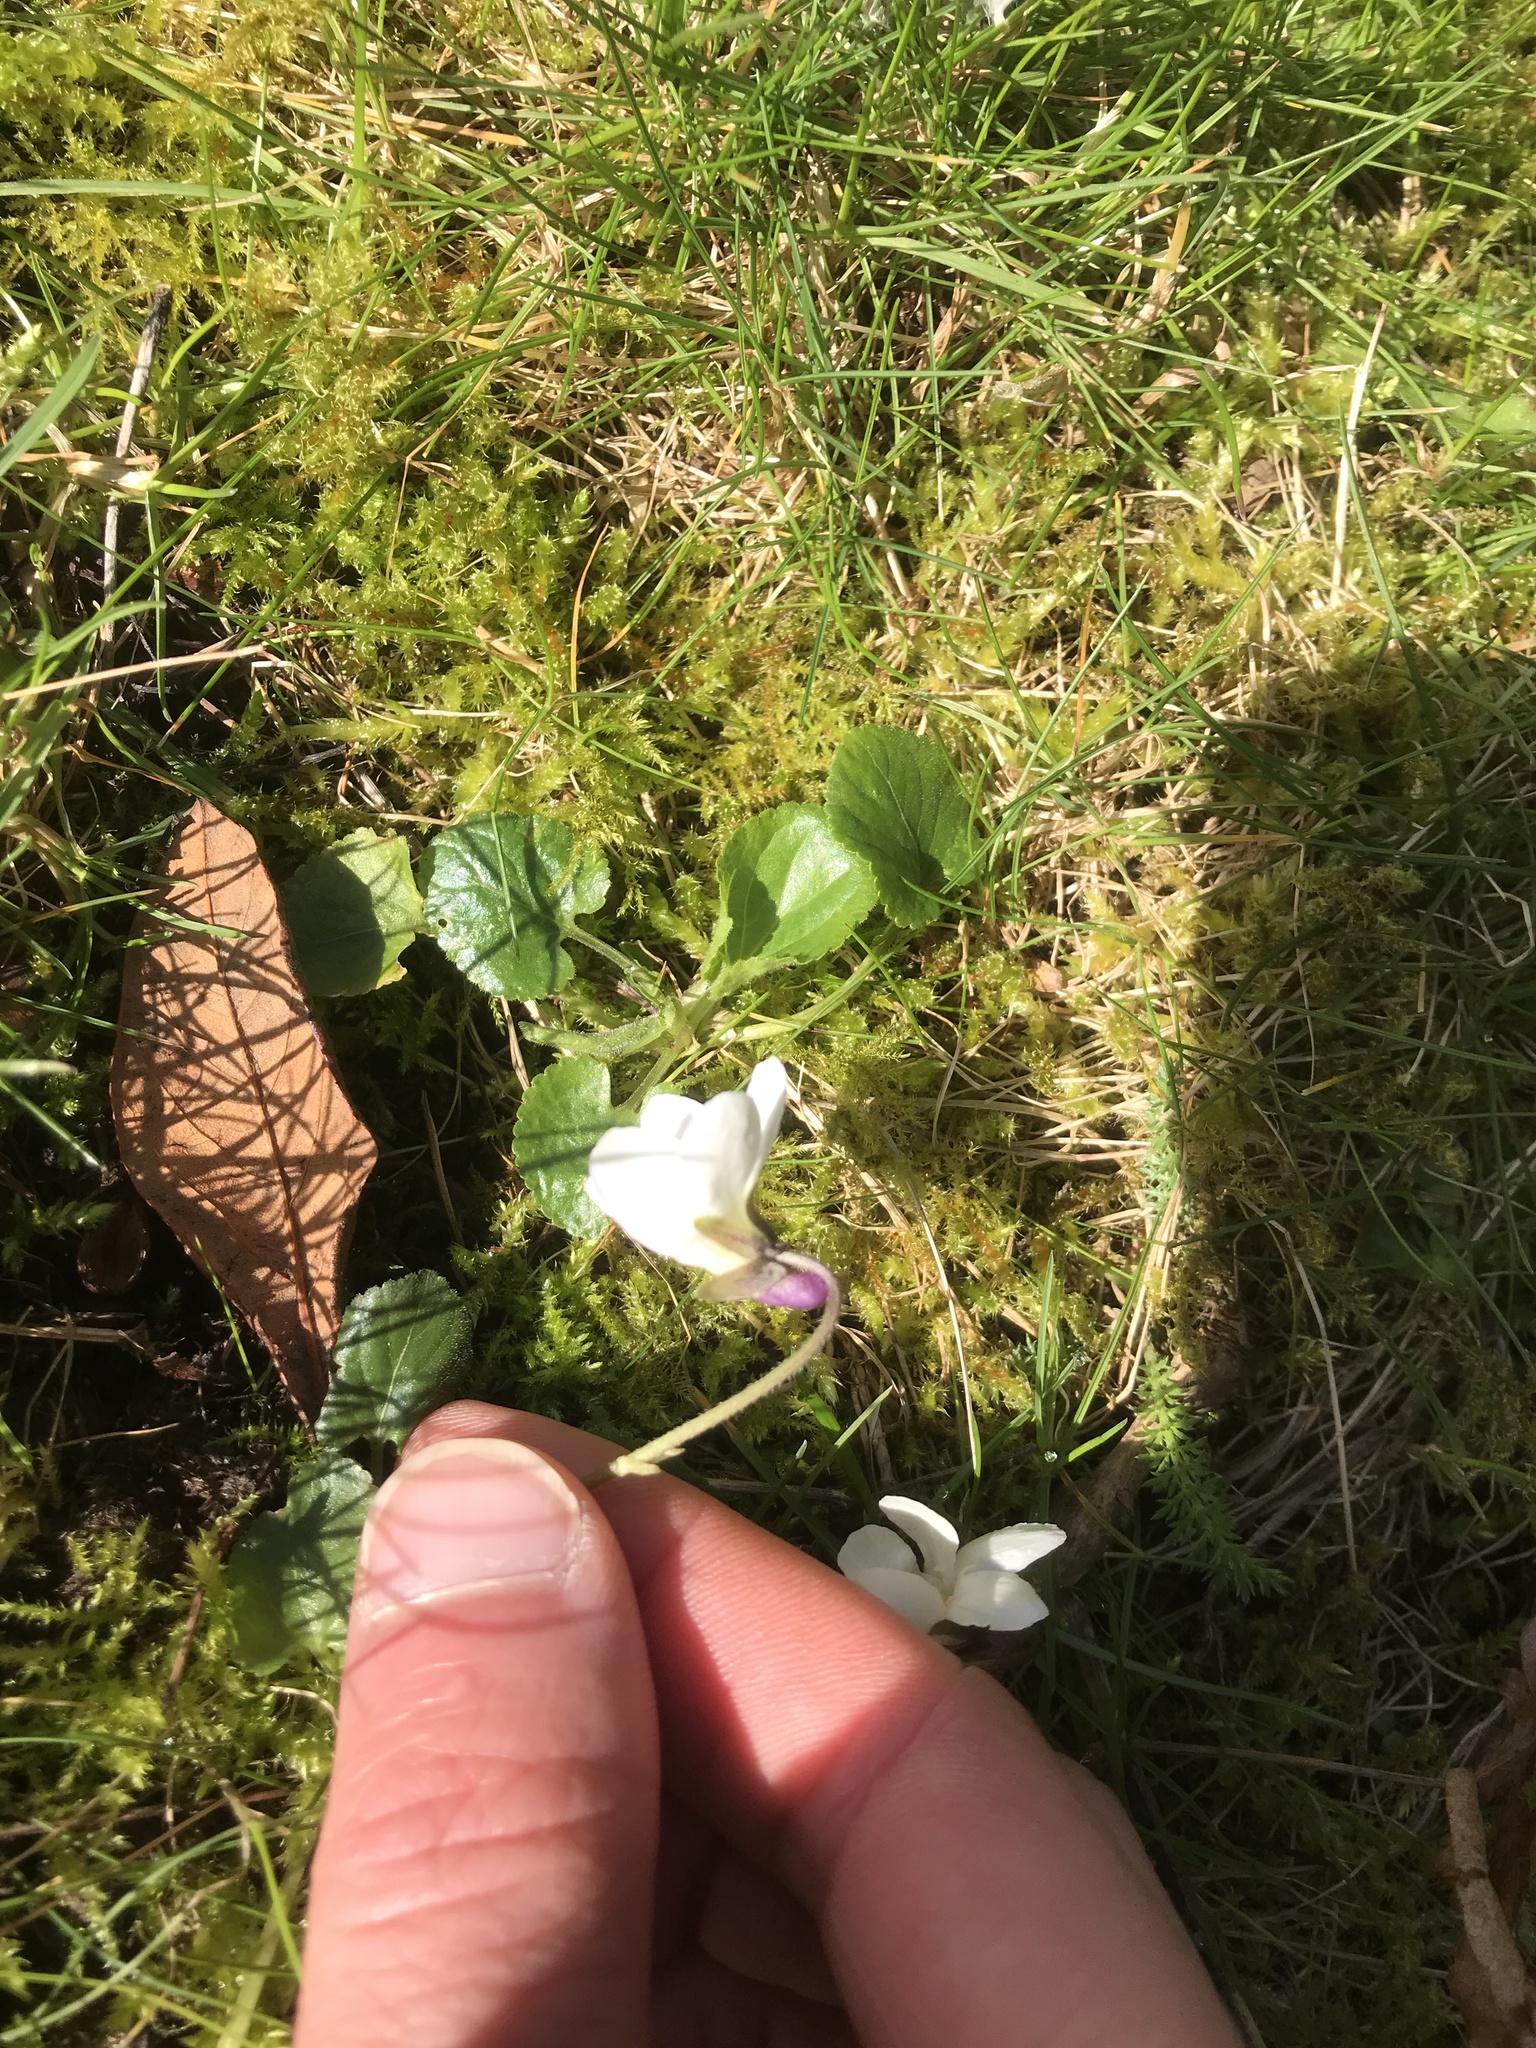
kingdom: Plantae
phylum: Tracheophyta
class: Magnoliopsida
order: Malpighiales
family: Violaceae
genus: Viola
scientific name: Viola odorata
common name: Sweet violet
